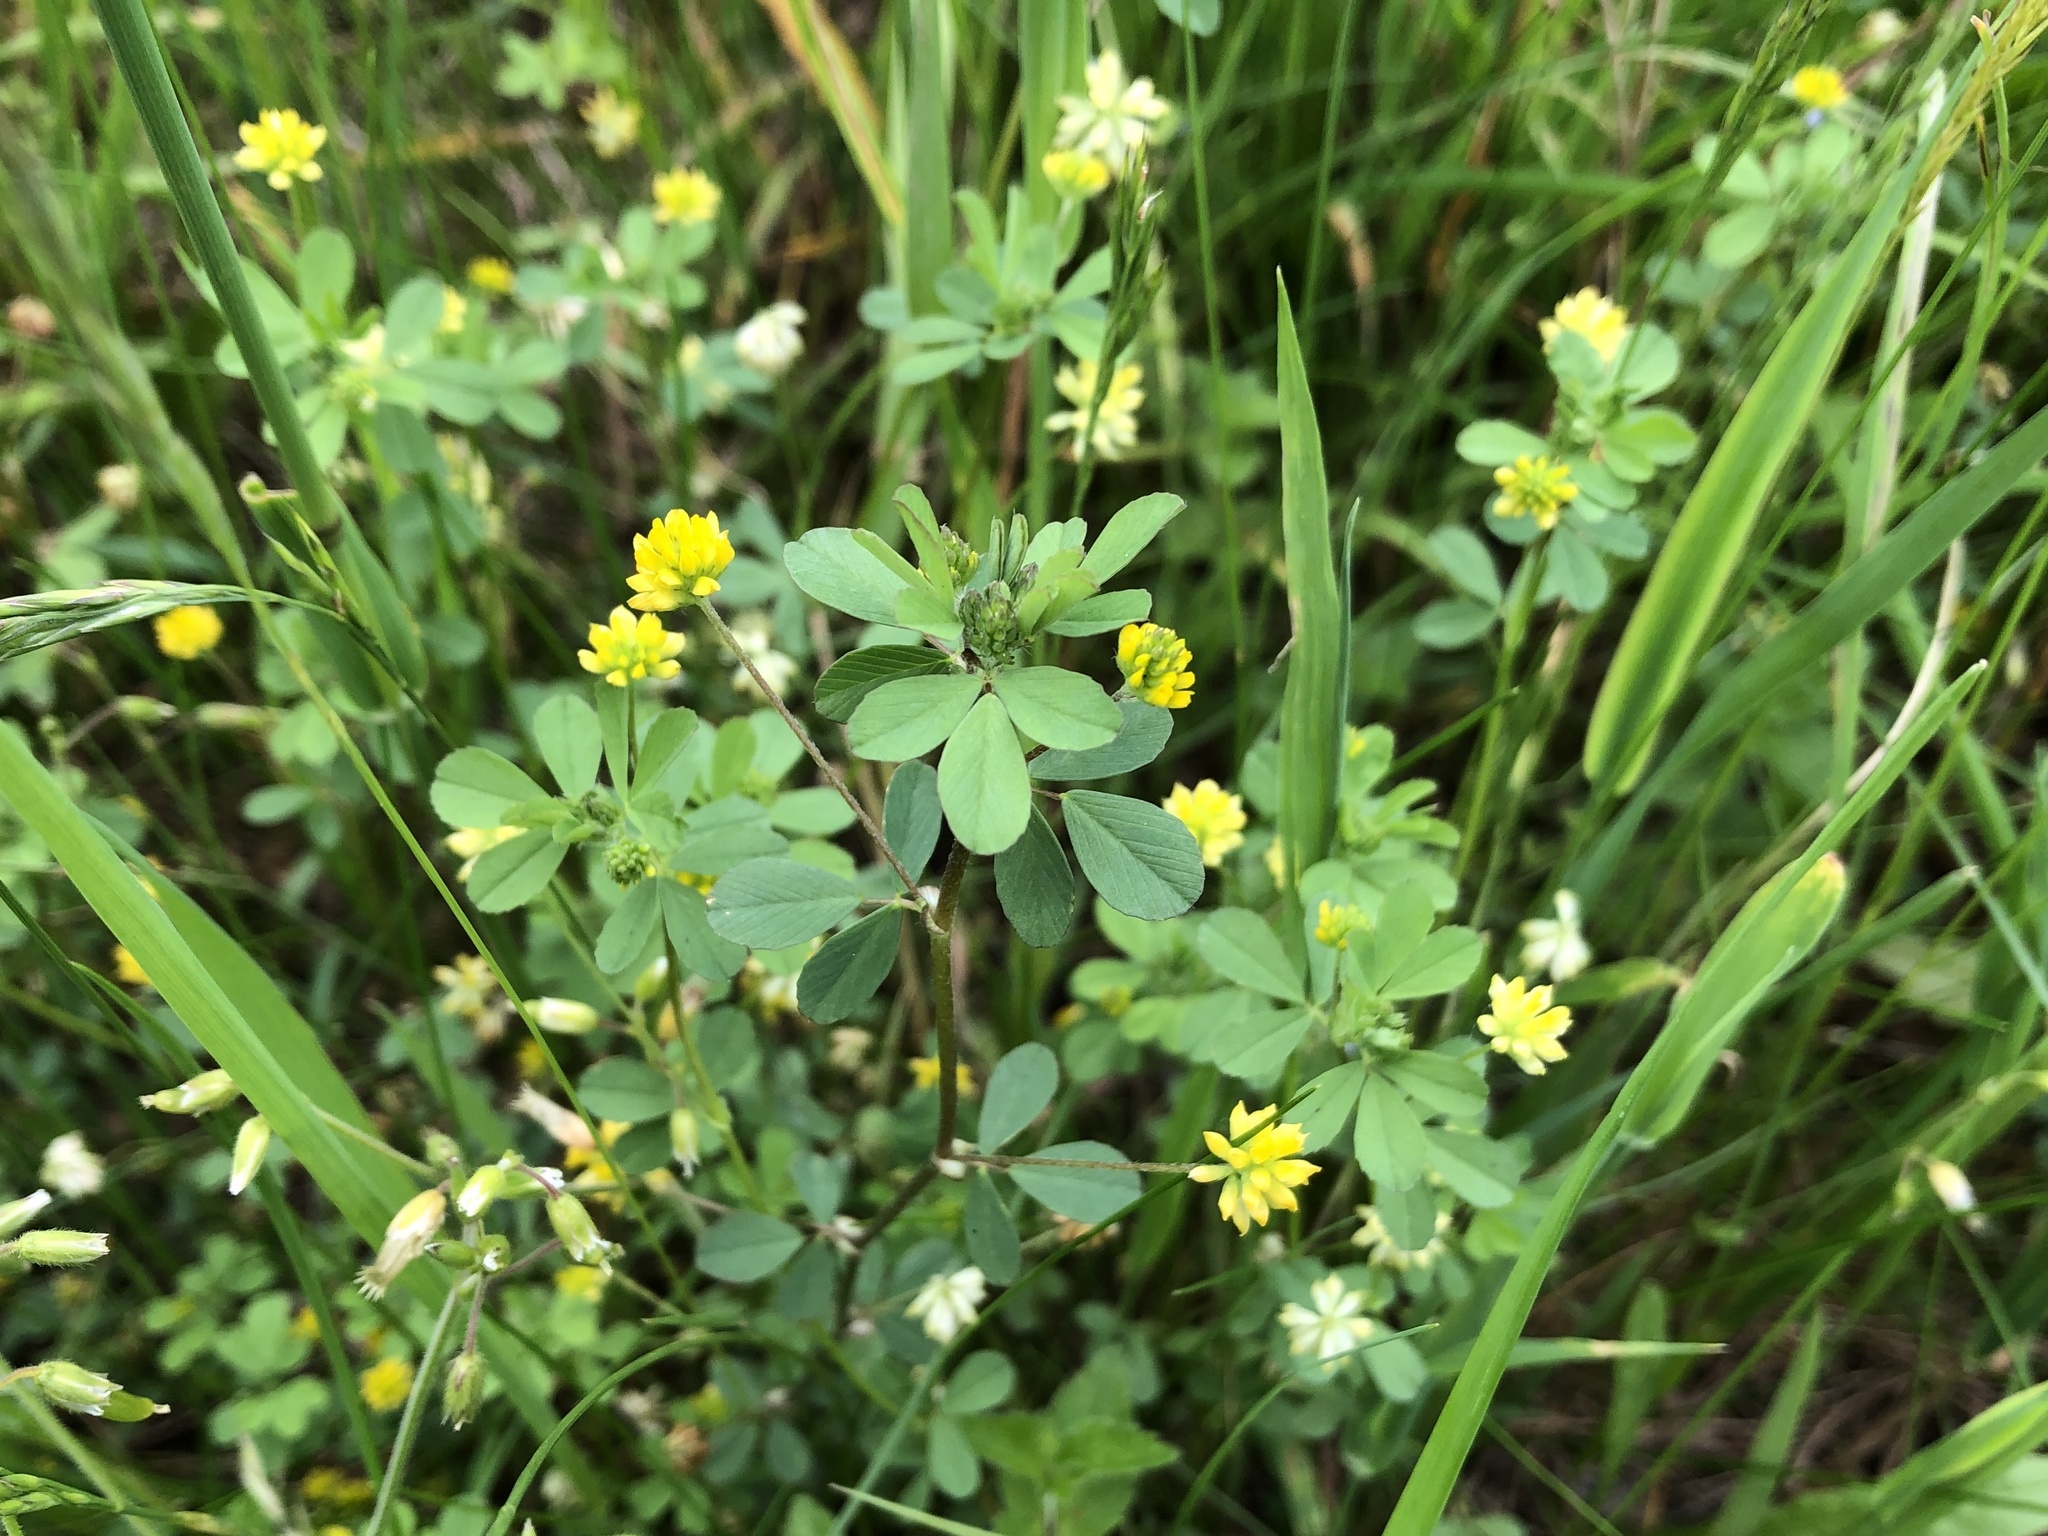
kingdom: Plantae
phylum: Tracheophyta
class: Magnoliopsida
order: Fabales
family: Fabaceae
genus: Trifolium
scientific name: Trifolium dubium
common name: Suckling clover
